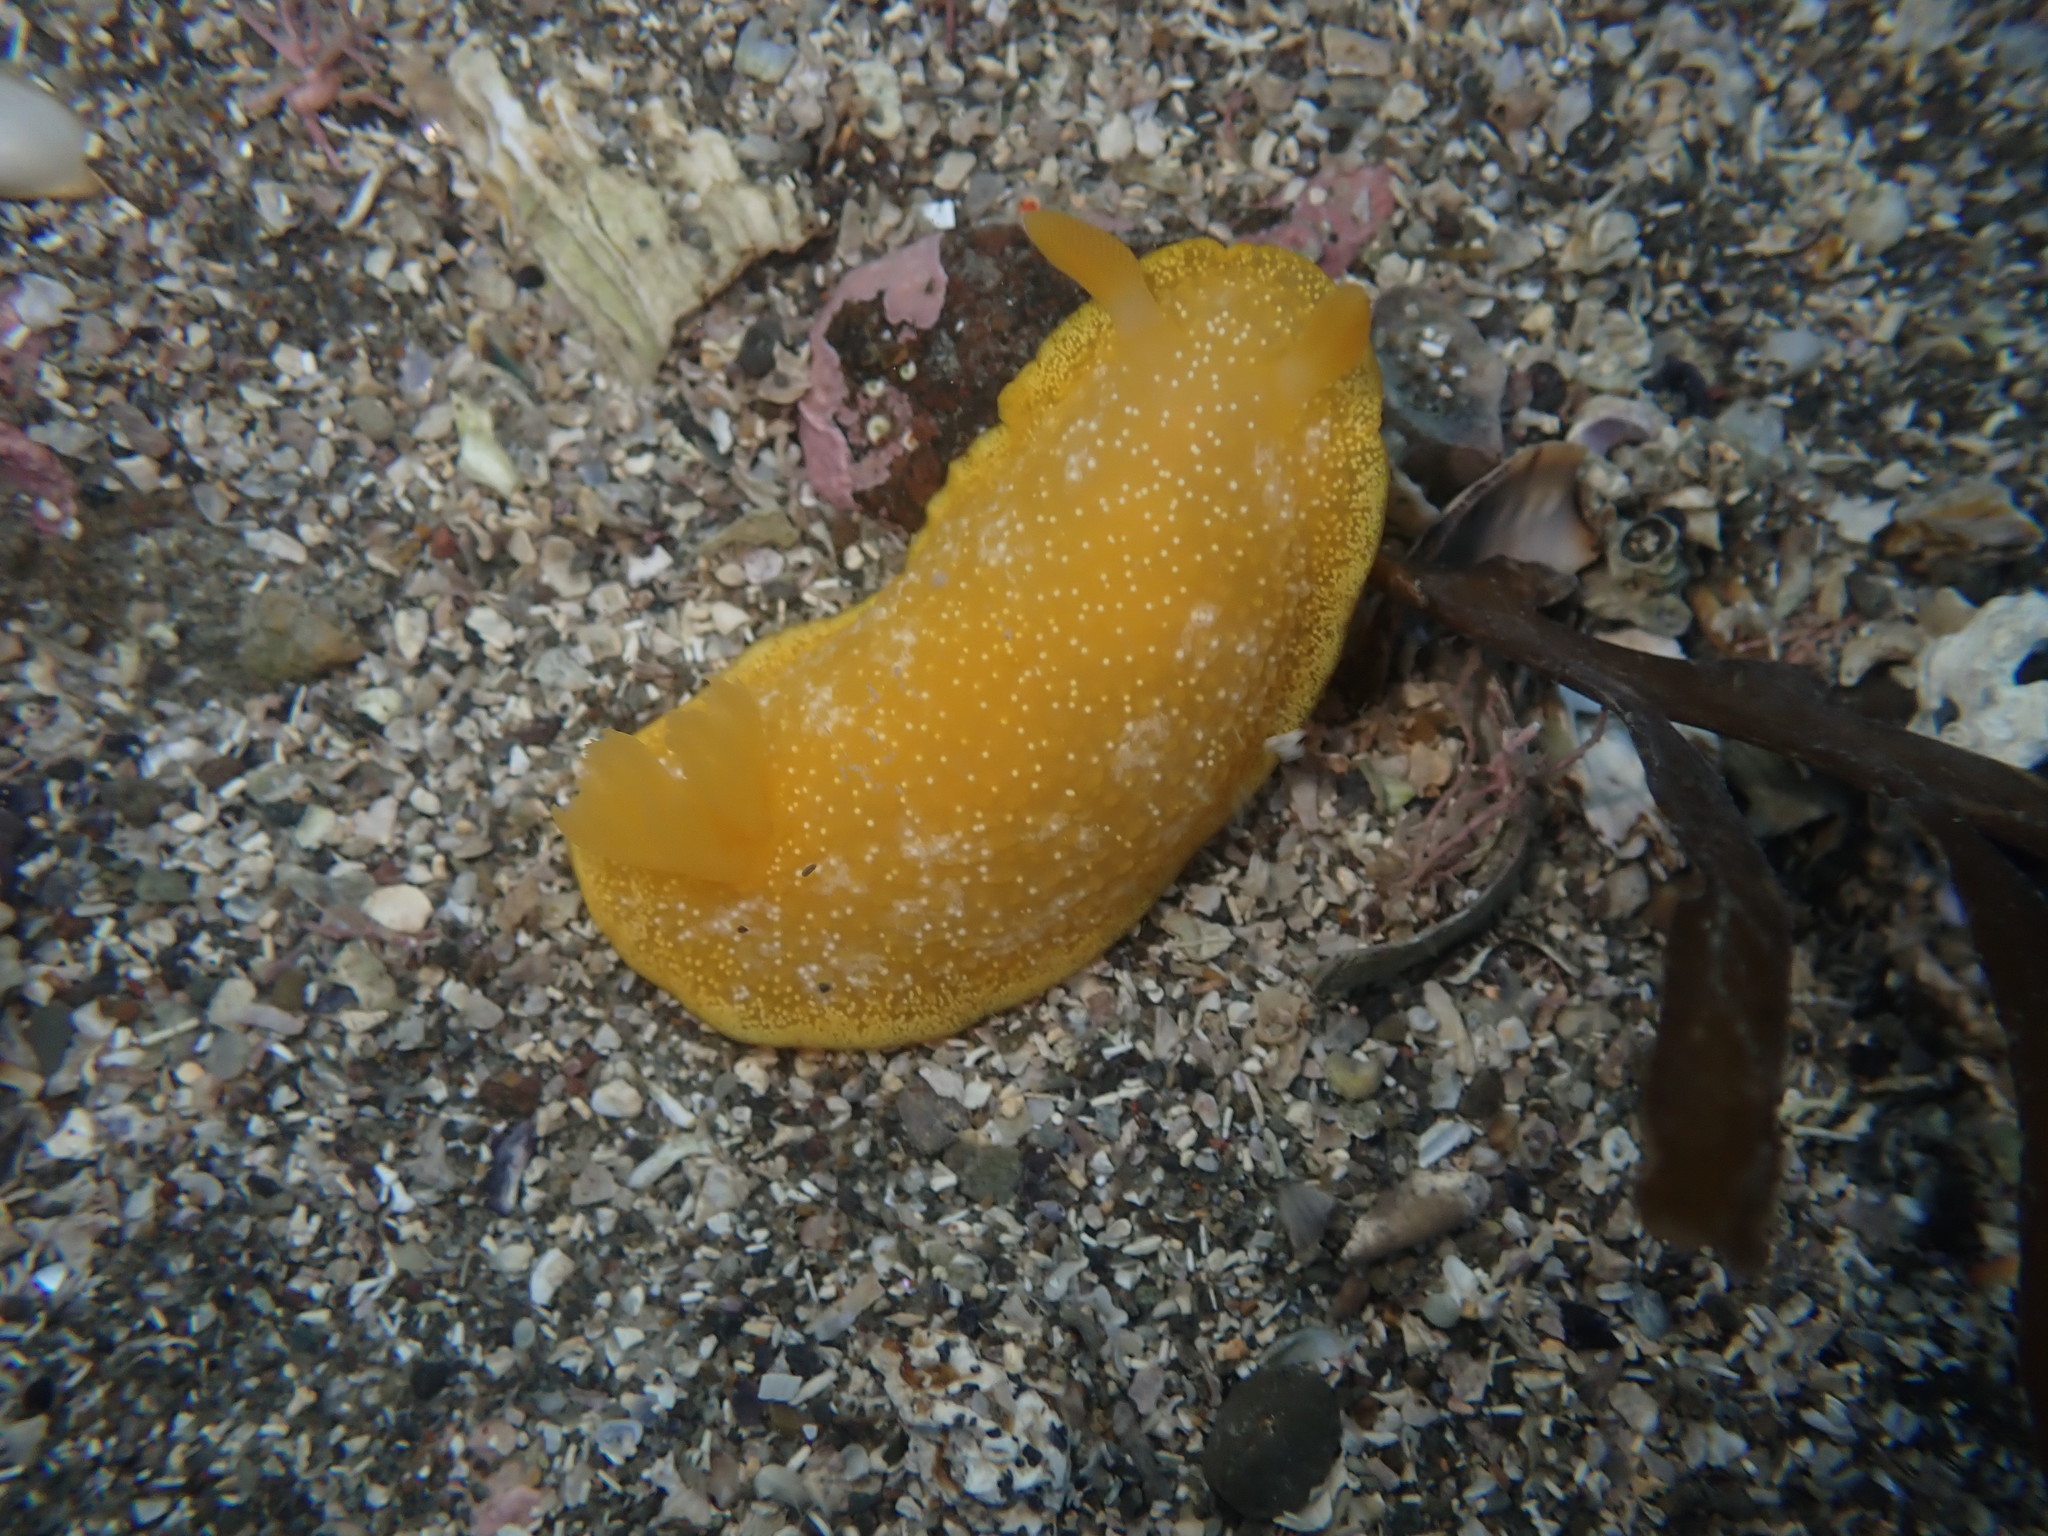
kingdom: Animalia
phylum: Mollusca
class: Gastropoda
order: Nudibranchia
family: Dendrodorididae
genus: Dendrodoris
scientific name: Dendrodoris citrina
